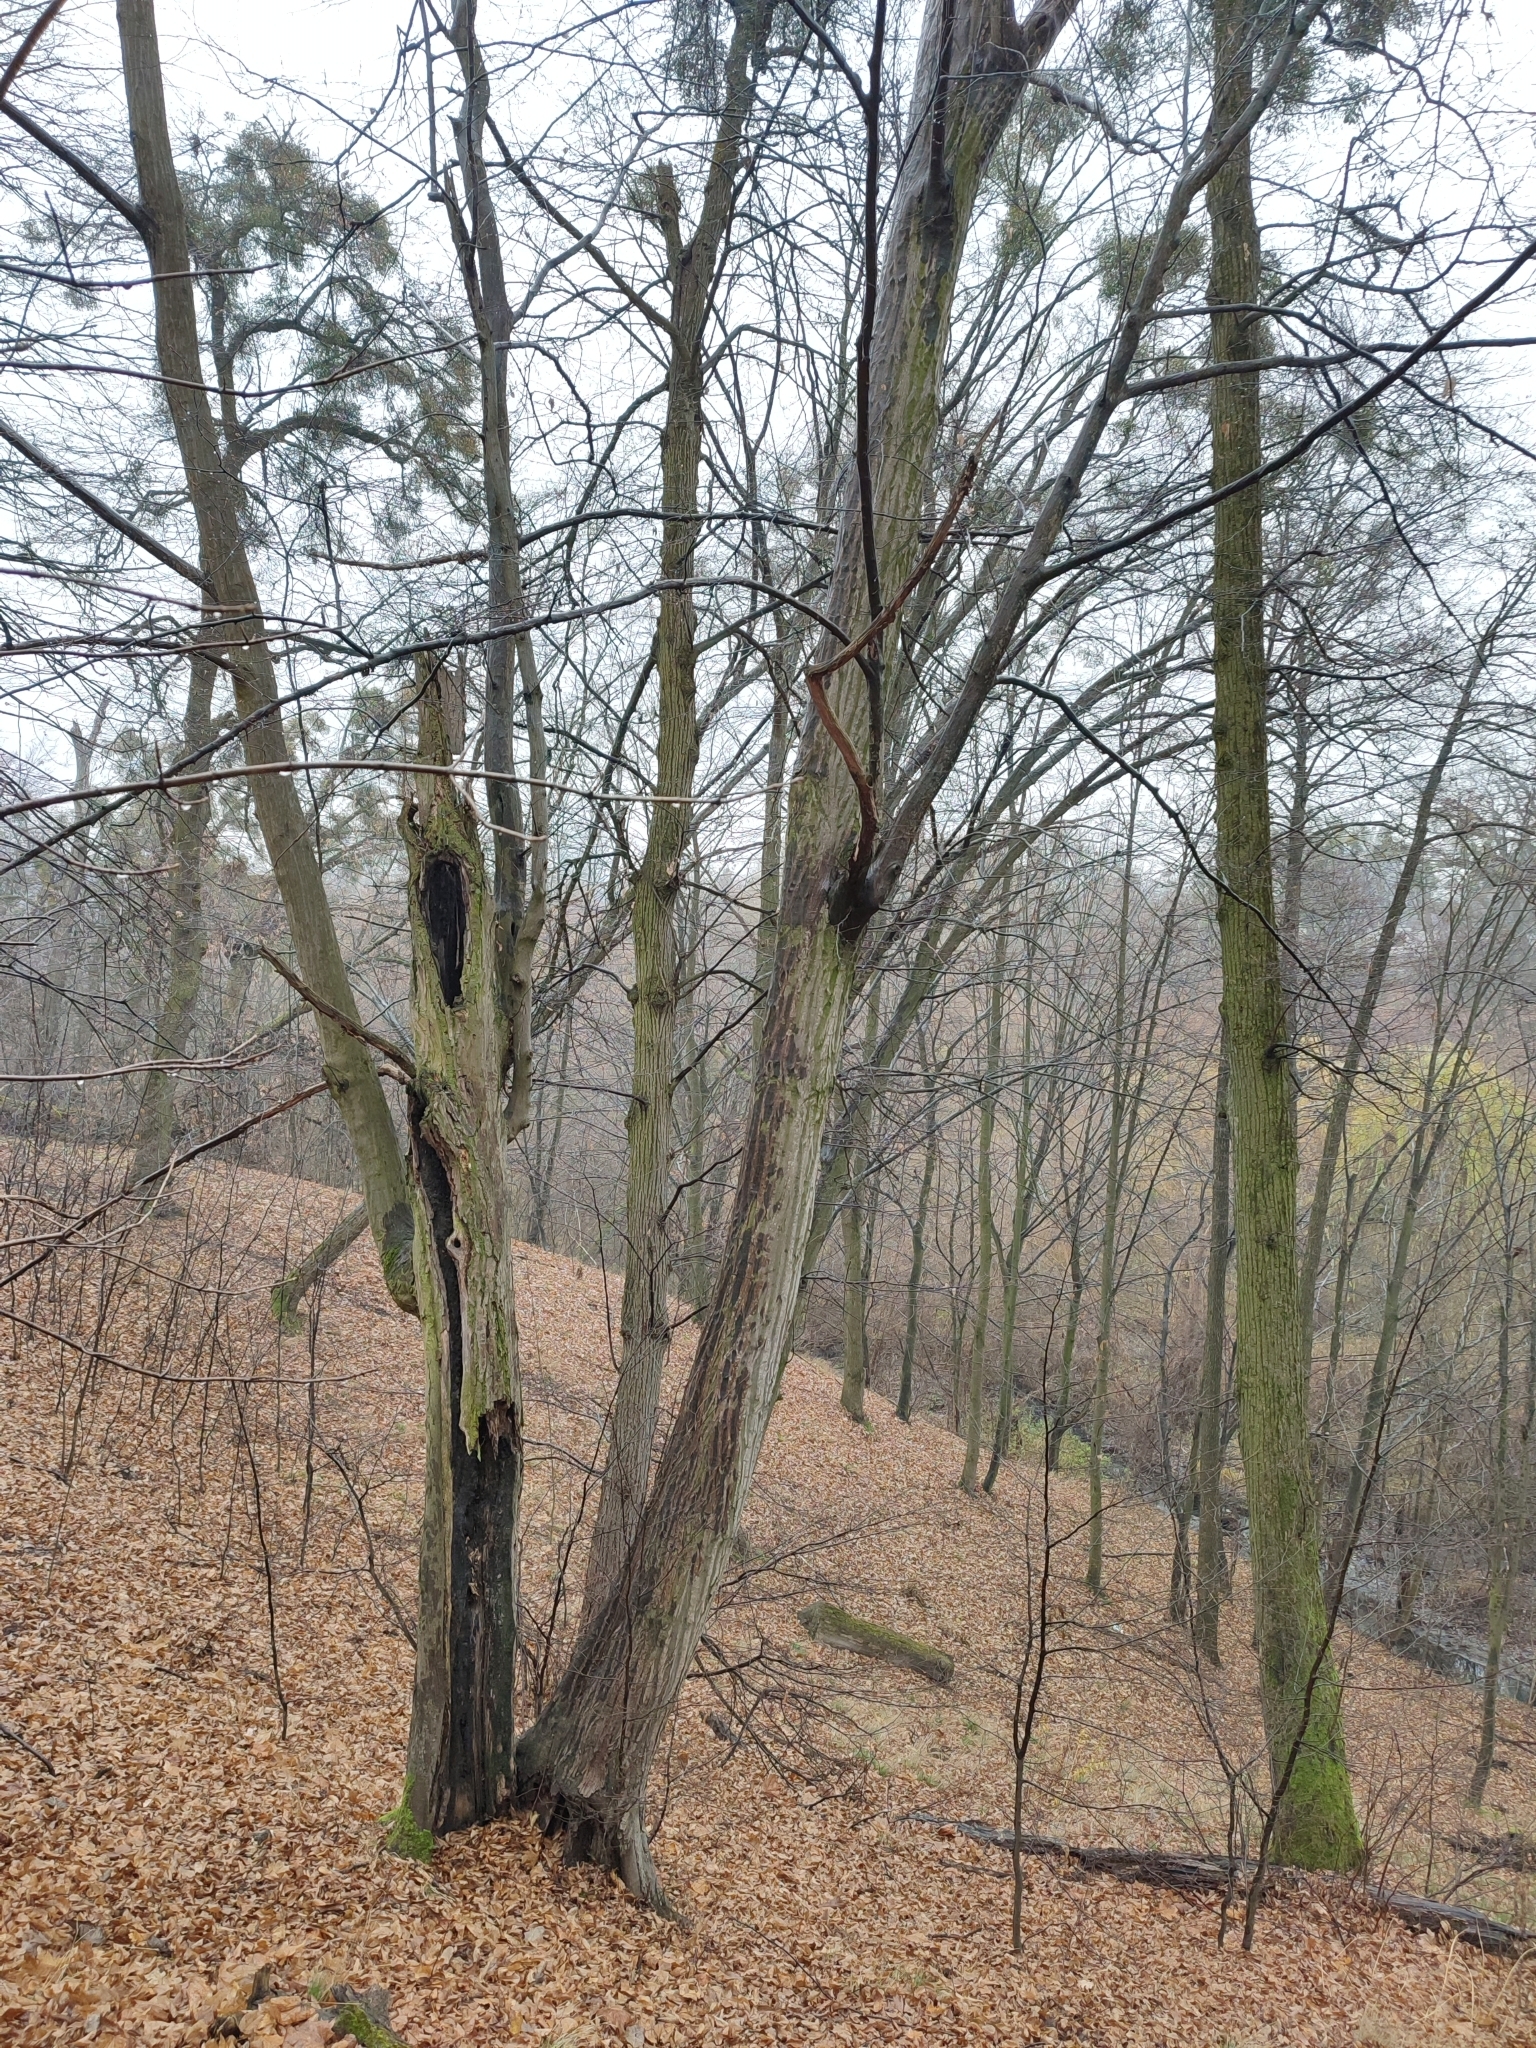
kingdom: Plantae
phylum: Tracheophyta
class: Magnoliopsida
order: Fagales
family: Betulaceae
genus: Carpinus
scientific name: Carpinus betulus
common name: Hornbeam
